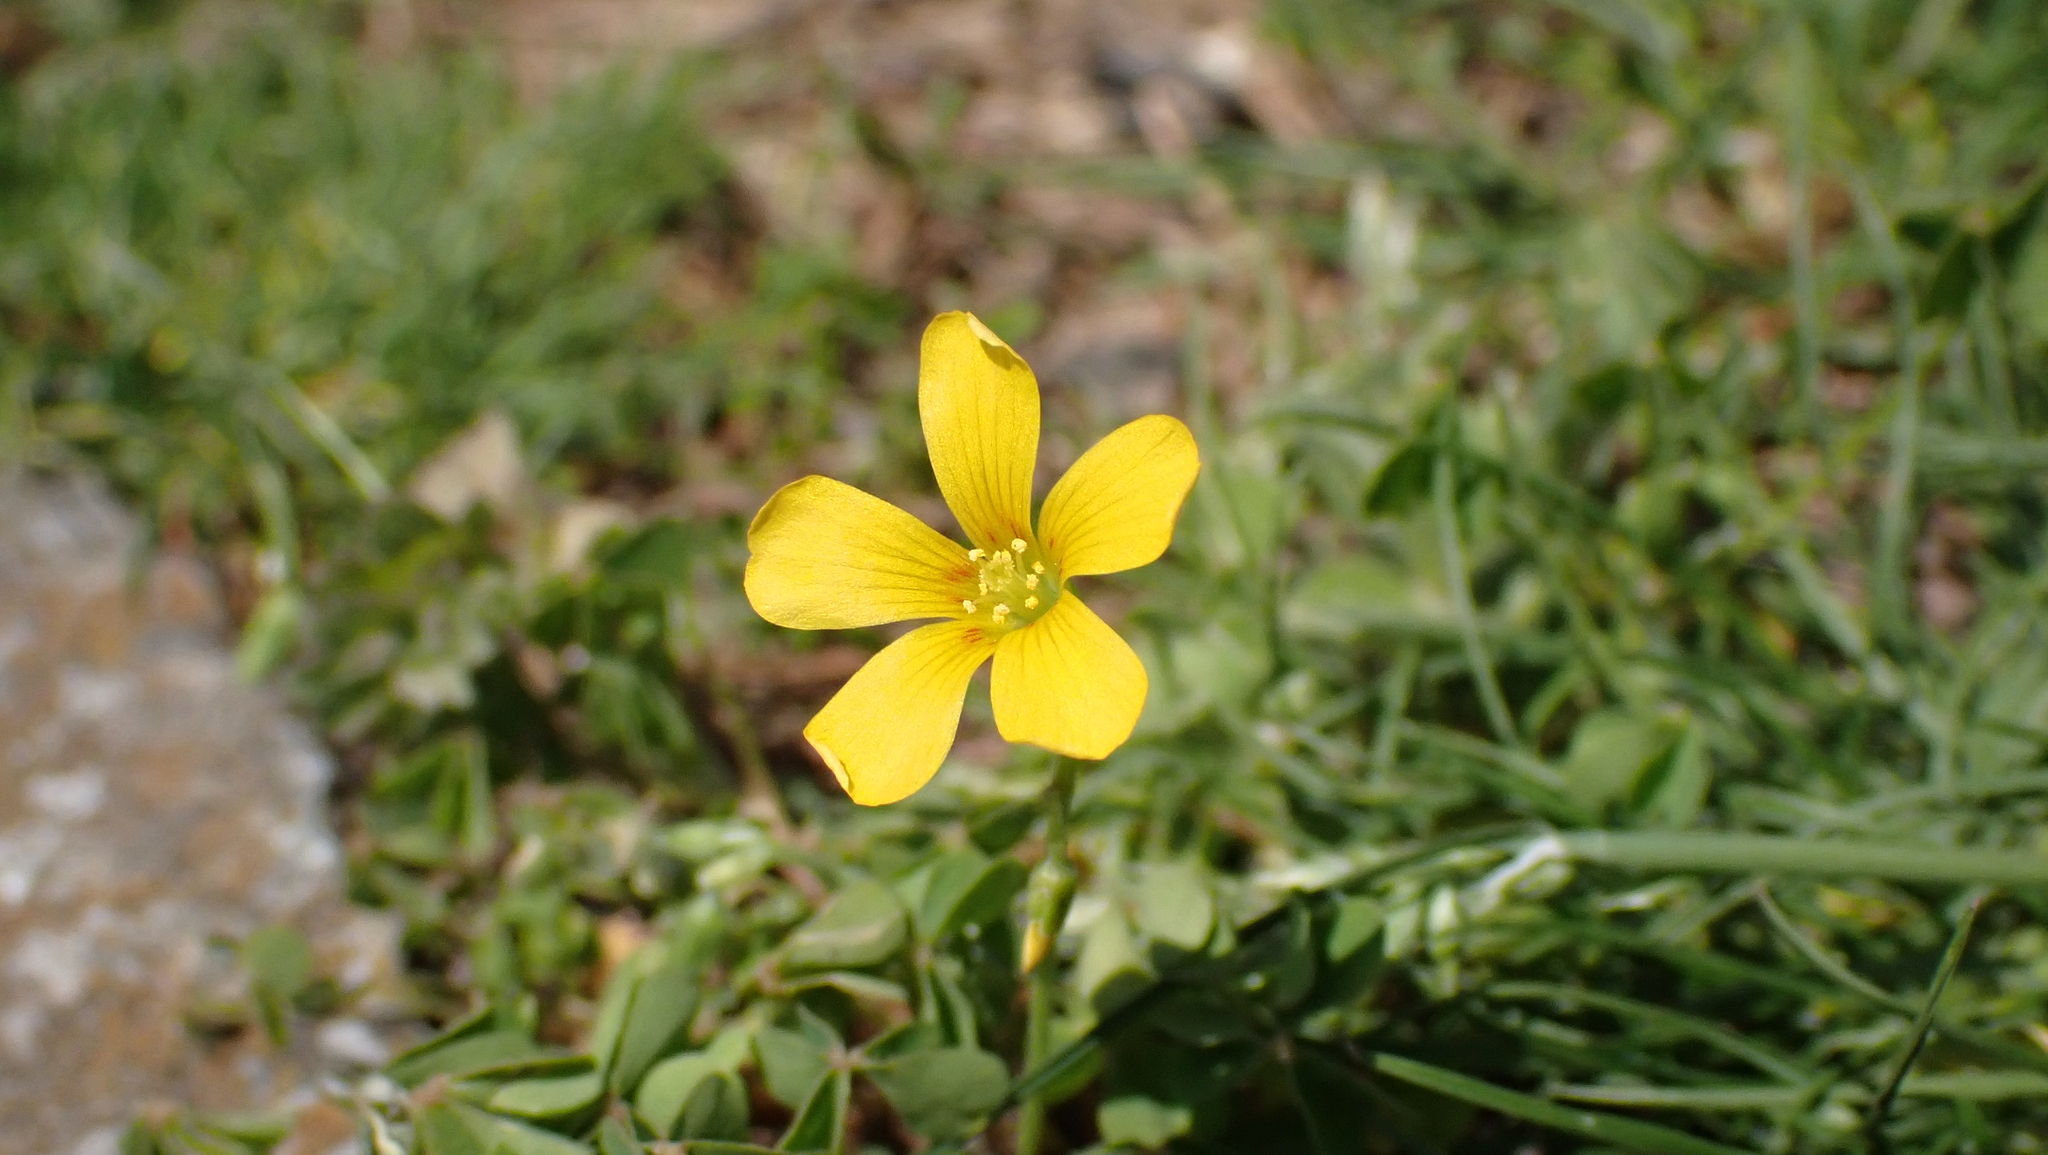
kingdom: Plantae
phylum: Tracheophyta
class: Magnoliopsida
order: Oxalidales
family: Oxalidaceae
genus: Oxalis
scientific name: Oxalis
